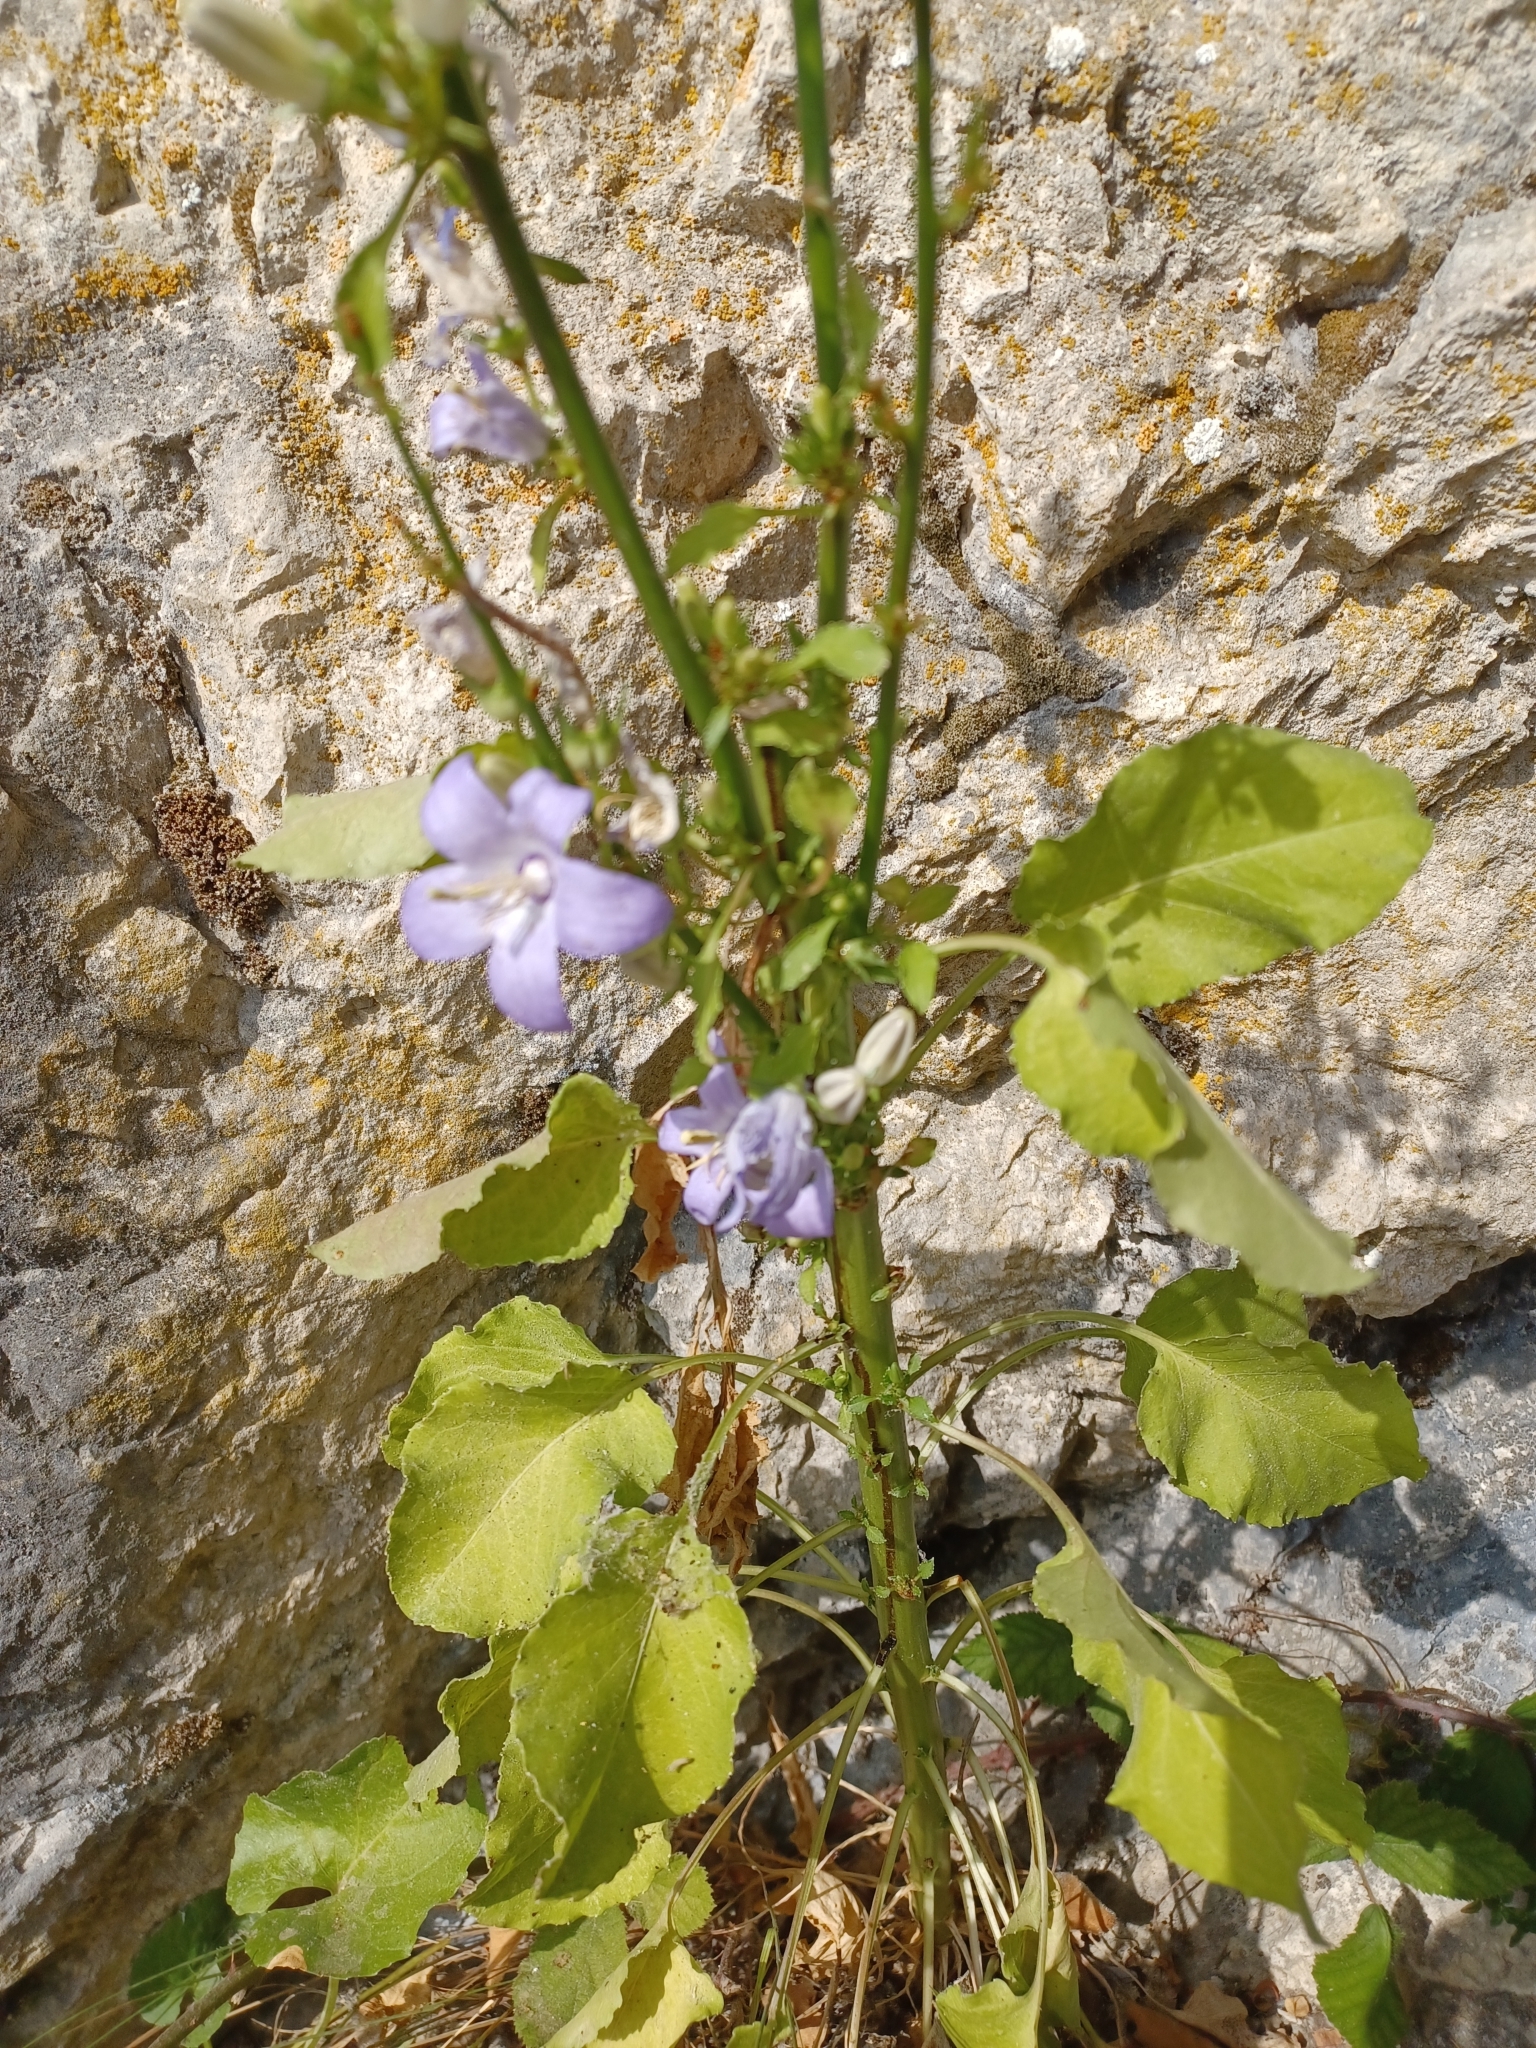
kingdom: Plantae
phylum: Tracheophyta
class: Magnoliopsida
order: Asterales
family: Campanulaceae
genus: Campanula
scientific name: Campanula pyramidalis
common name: Chimney bellflower
